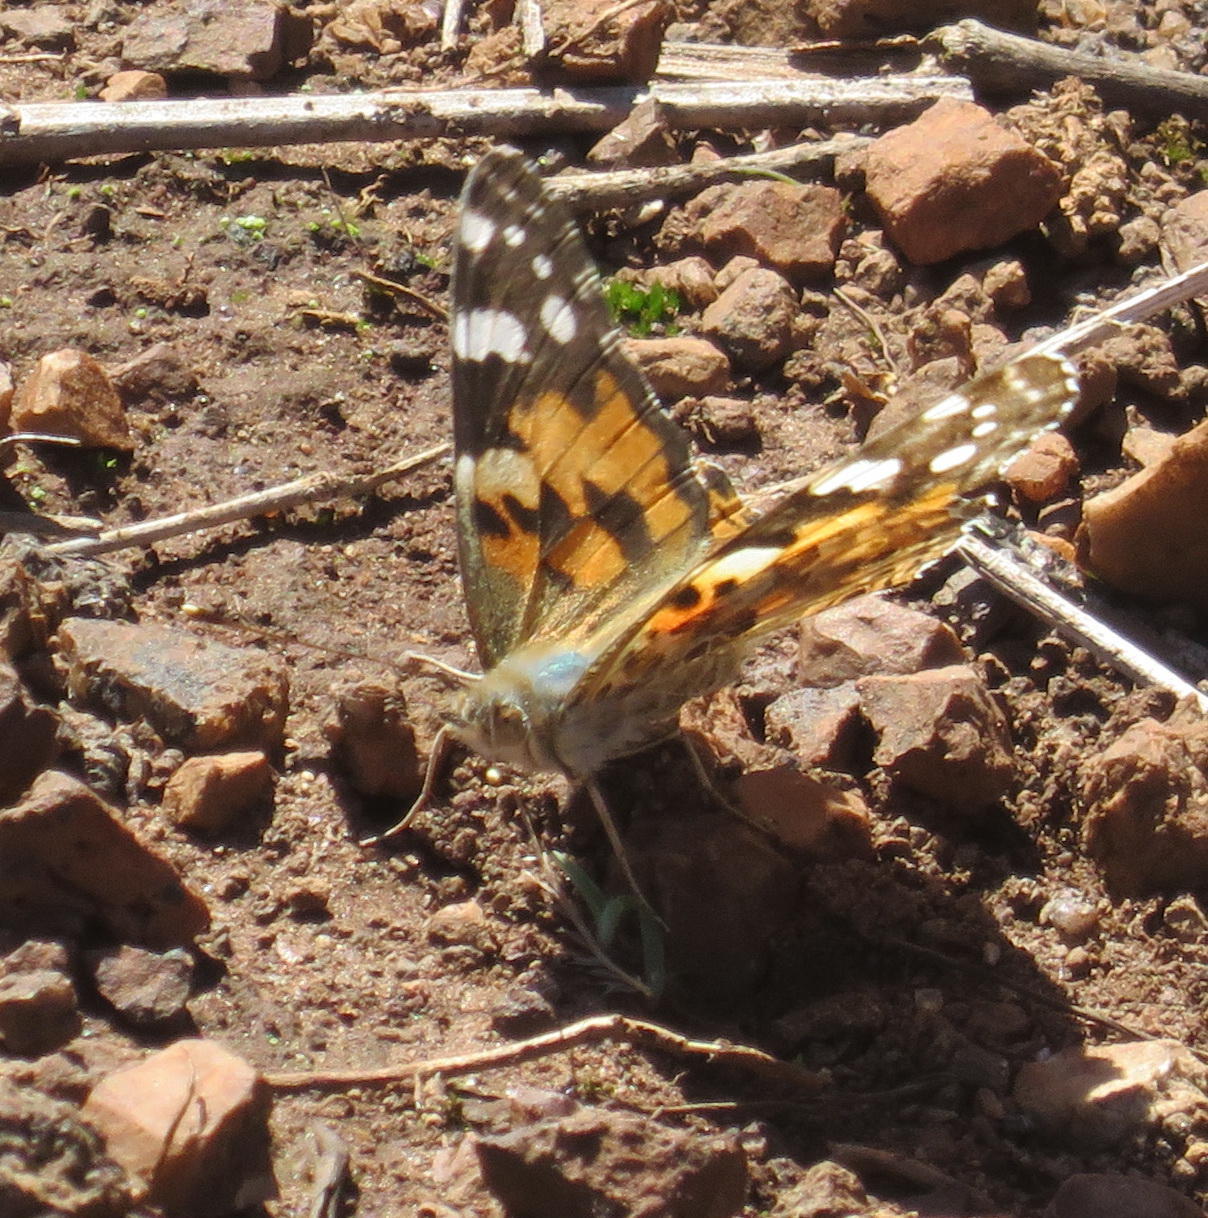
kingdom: Animalia
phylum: Arthropoda
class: Insecta
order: Lepidoptera
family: Nymphalidae
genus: Vanessa
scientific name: Vanessa cardui
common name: Painted lady
